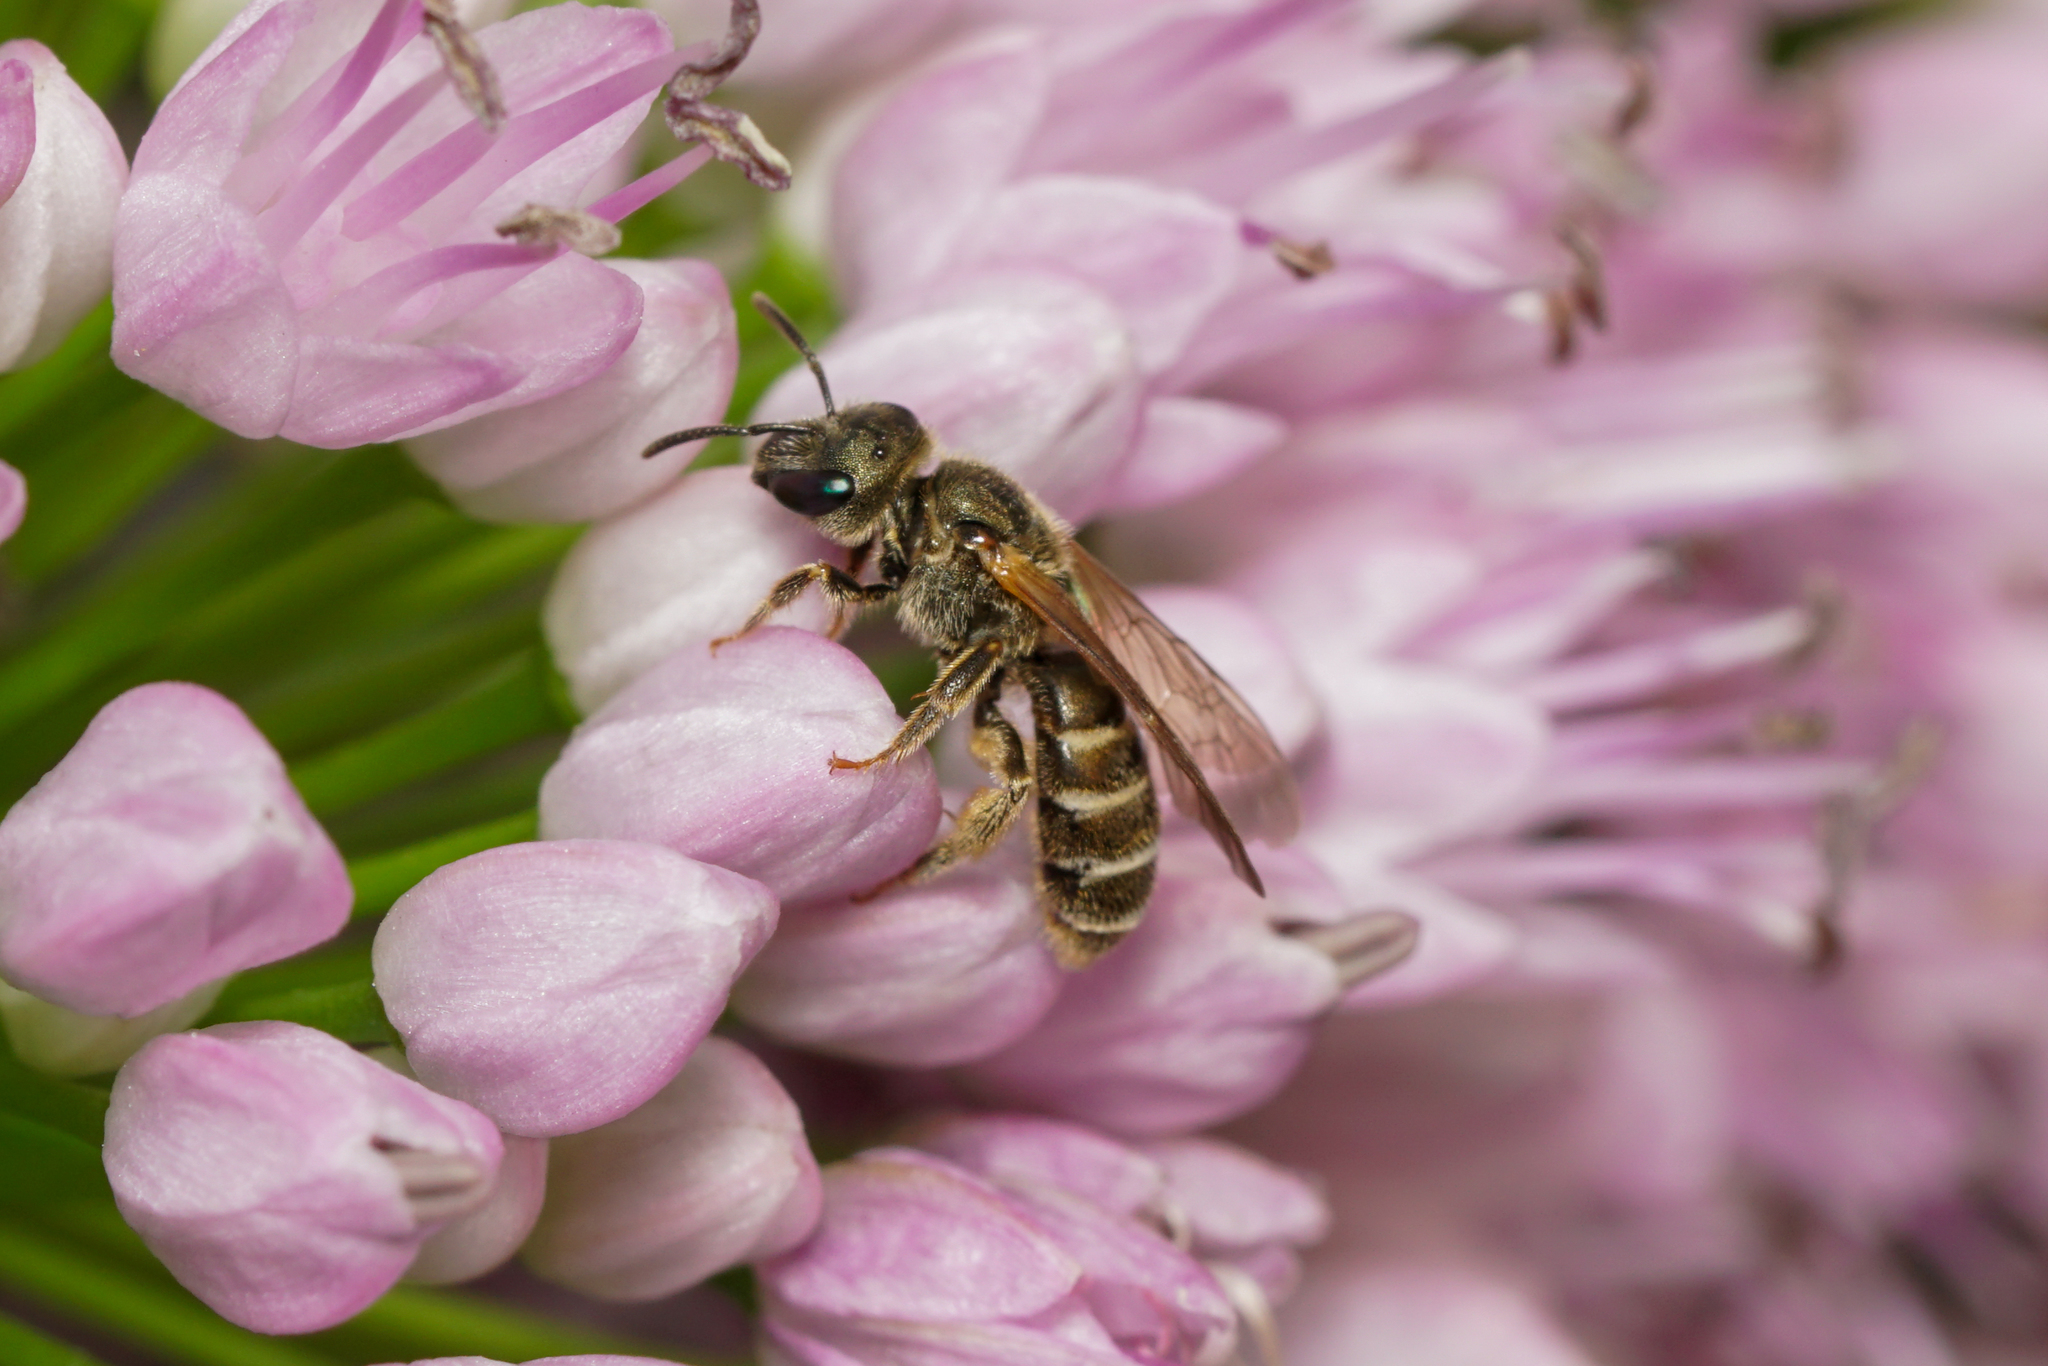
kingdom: Animalia
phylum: Arthropoda
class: Insecta
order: Hymenoptera
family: Halictidae
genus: Halictus
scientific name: Halictus confusus
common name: Southern bronze furrow bee
